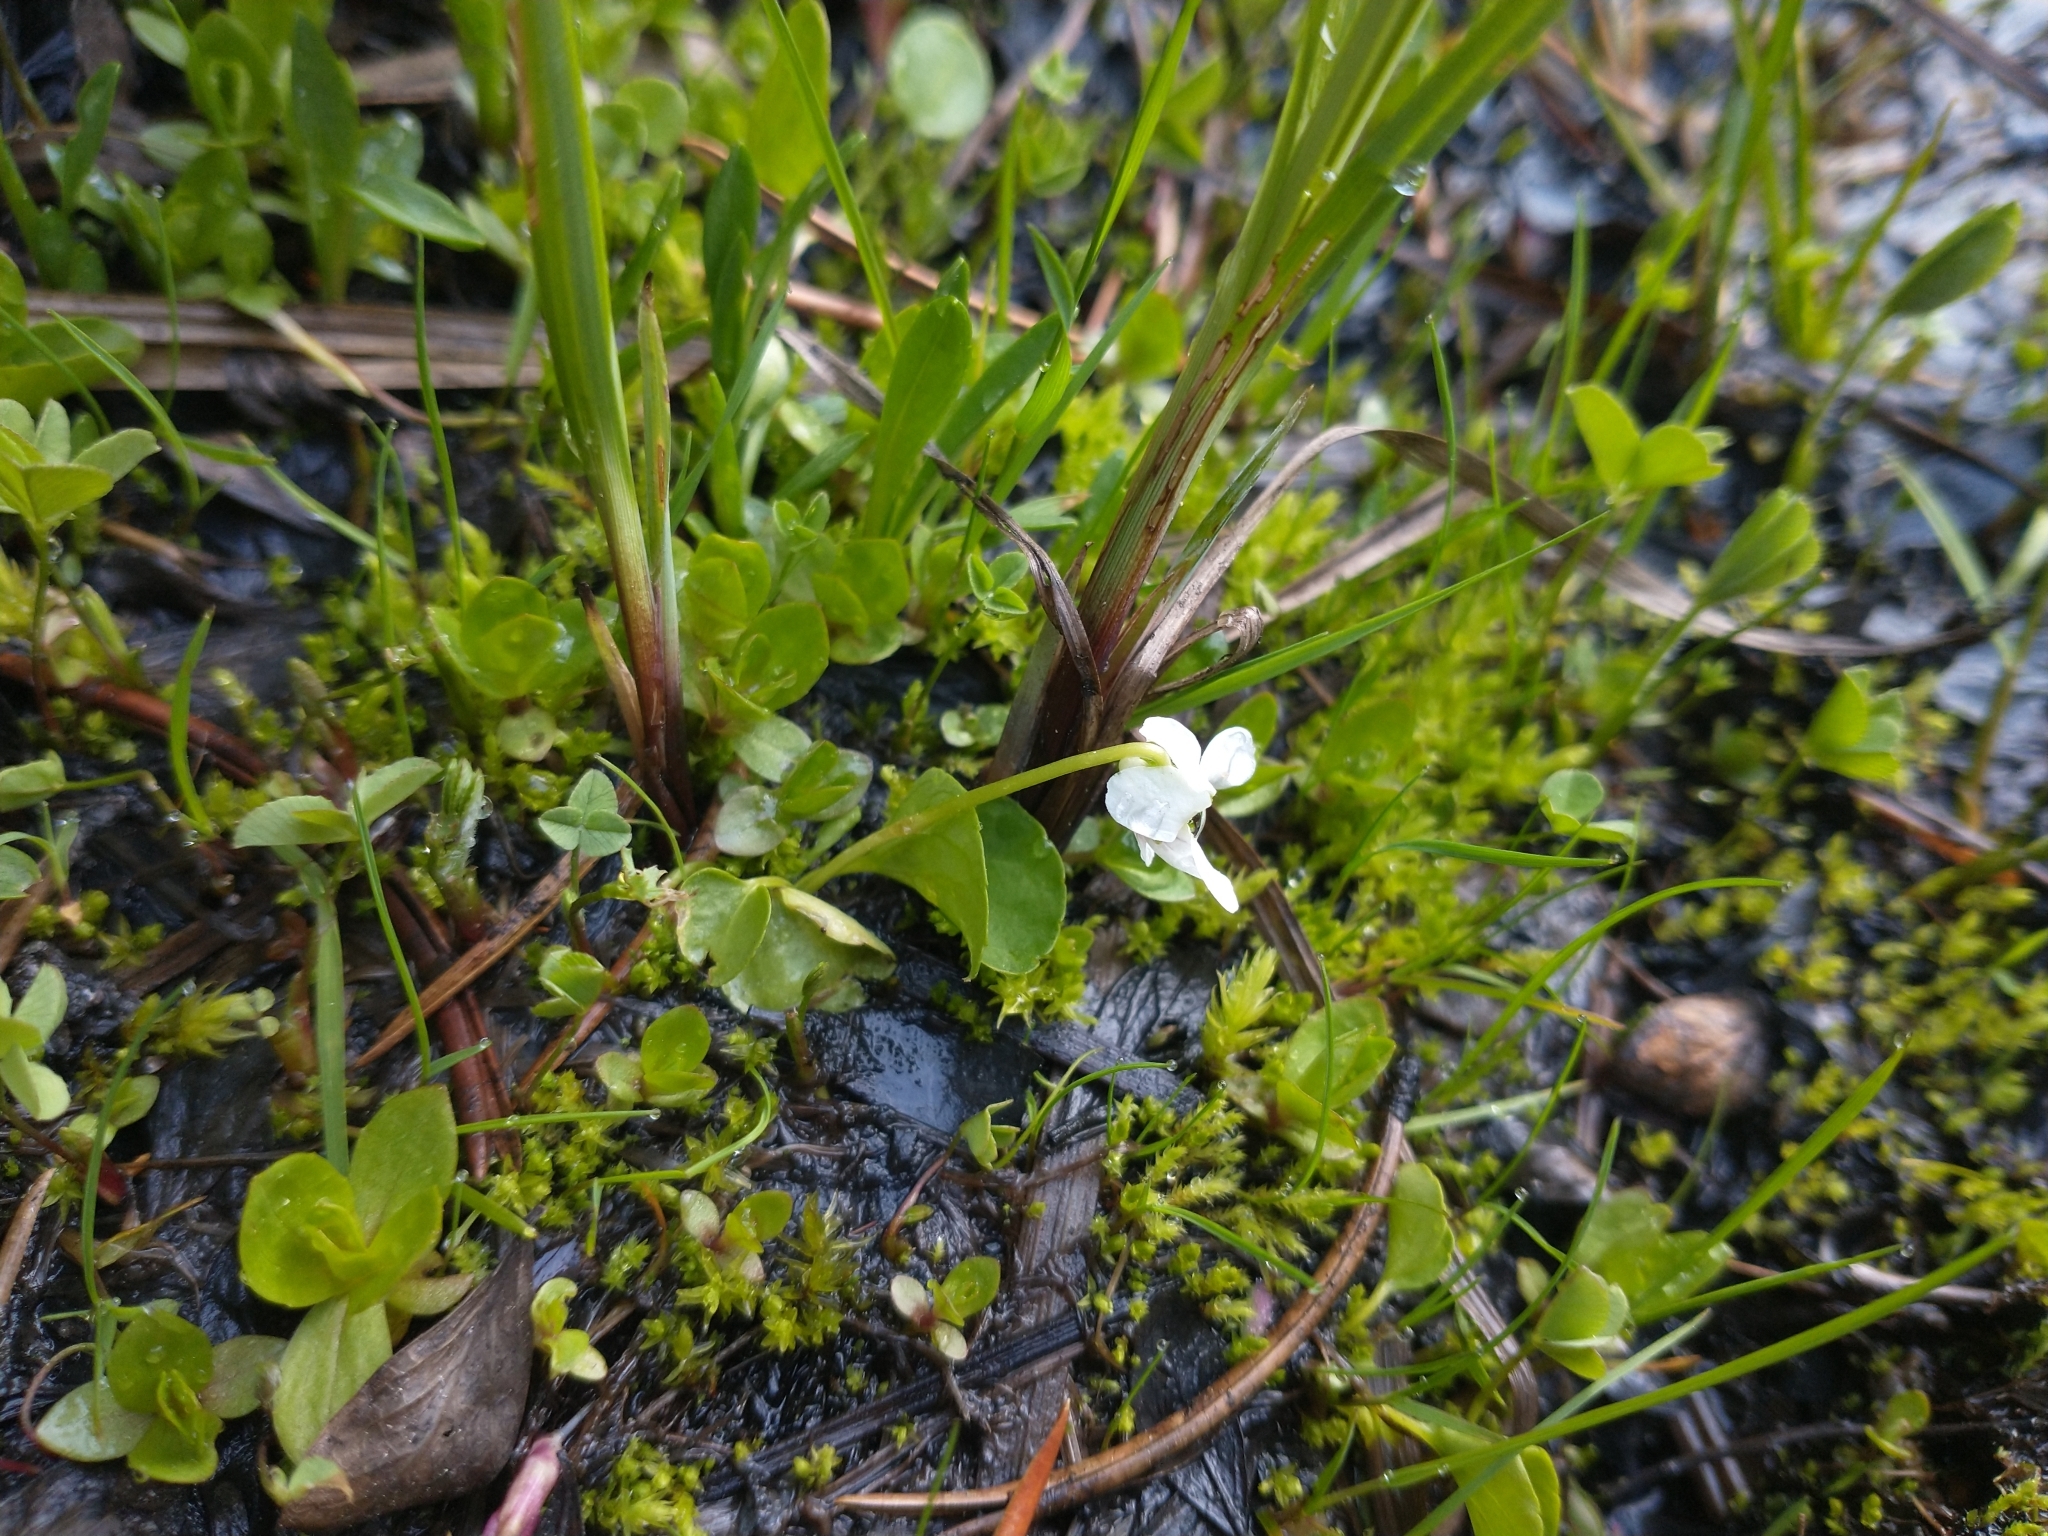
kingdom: Plantae
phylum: Tracheophyta
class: Magnoliopsida
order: Malpighiales
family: Violaceae
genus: Viola
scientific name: Viola macloskeyi
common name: Macloskey's violet
